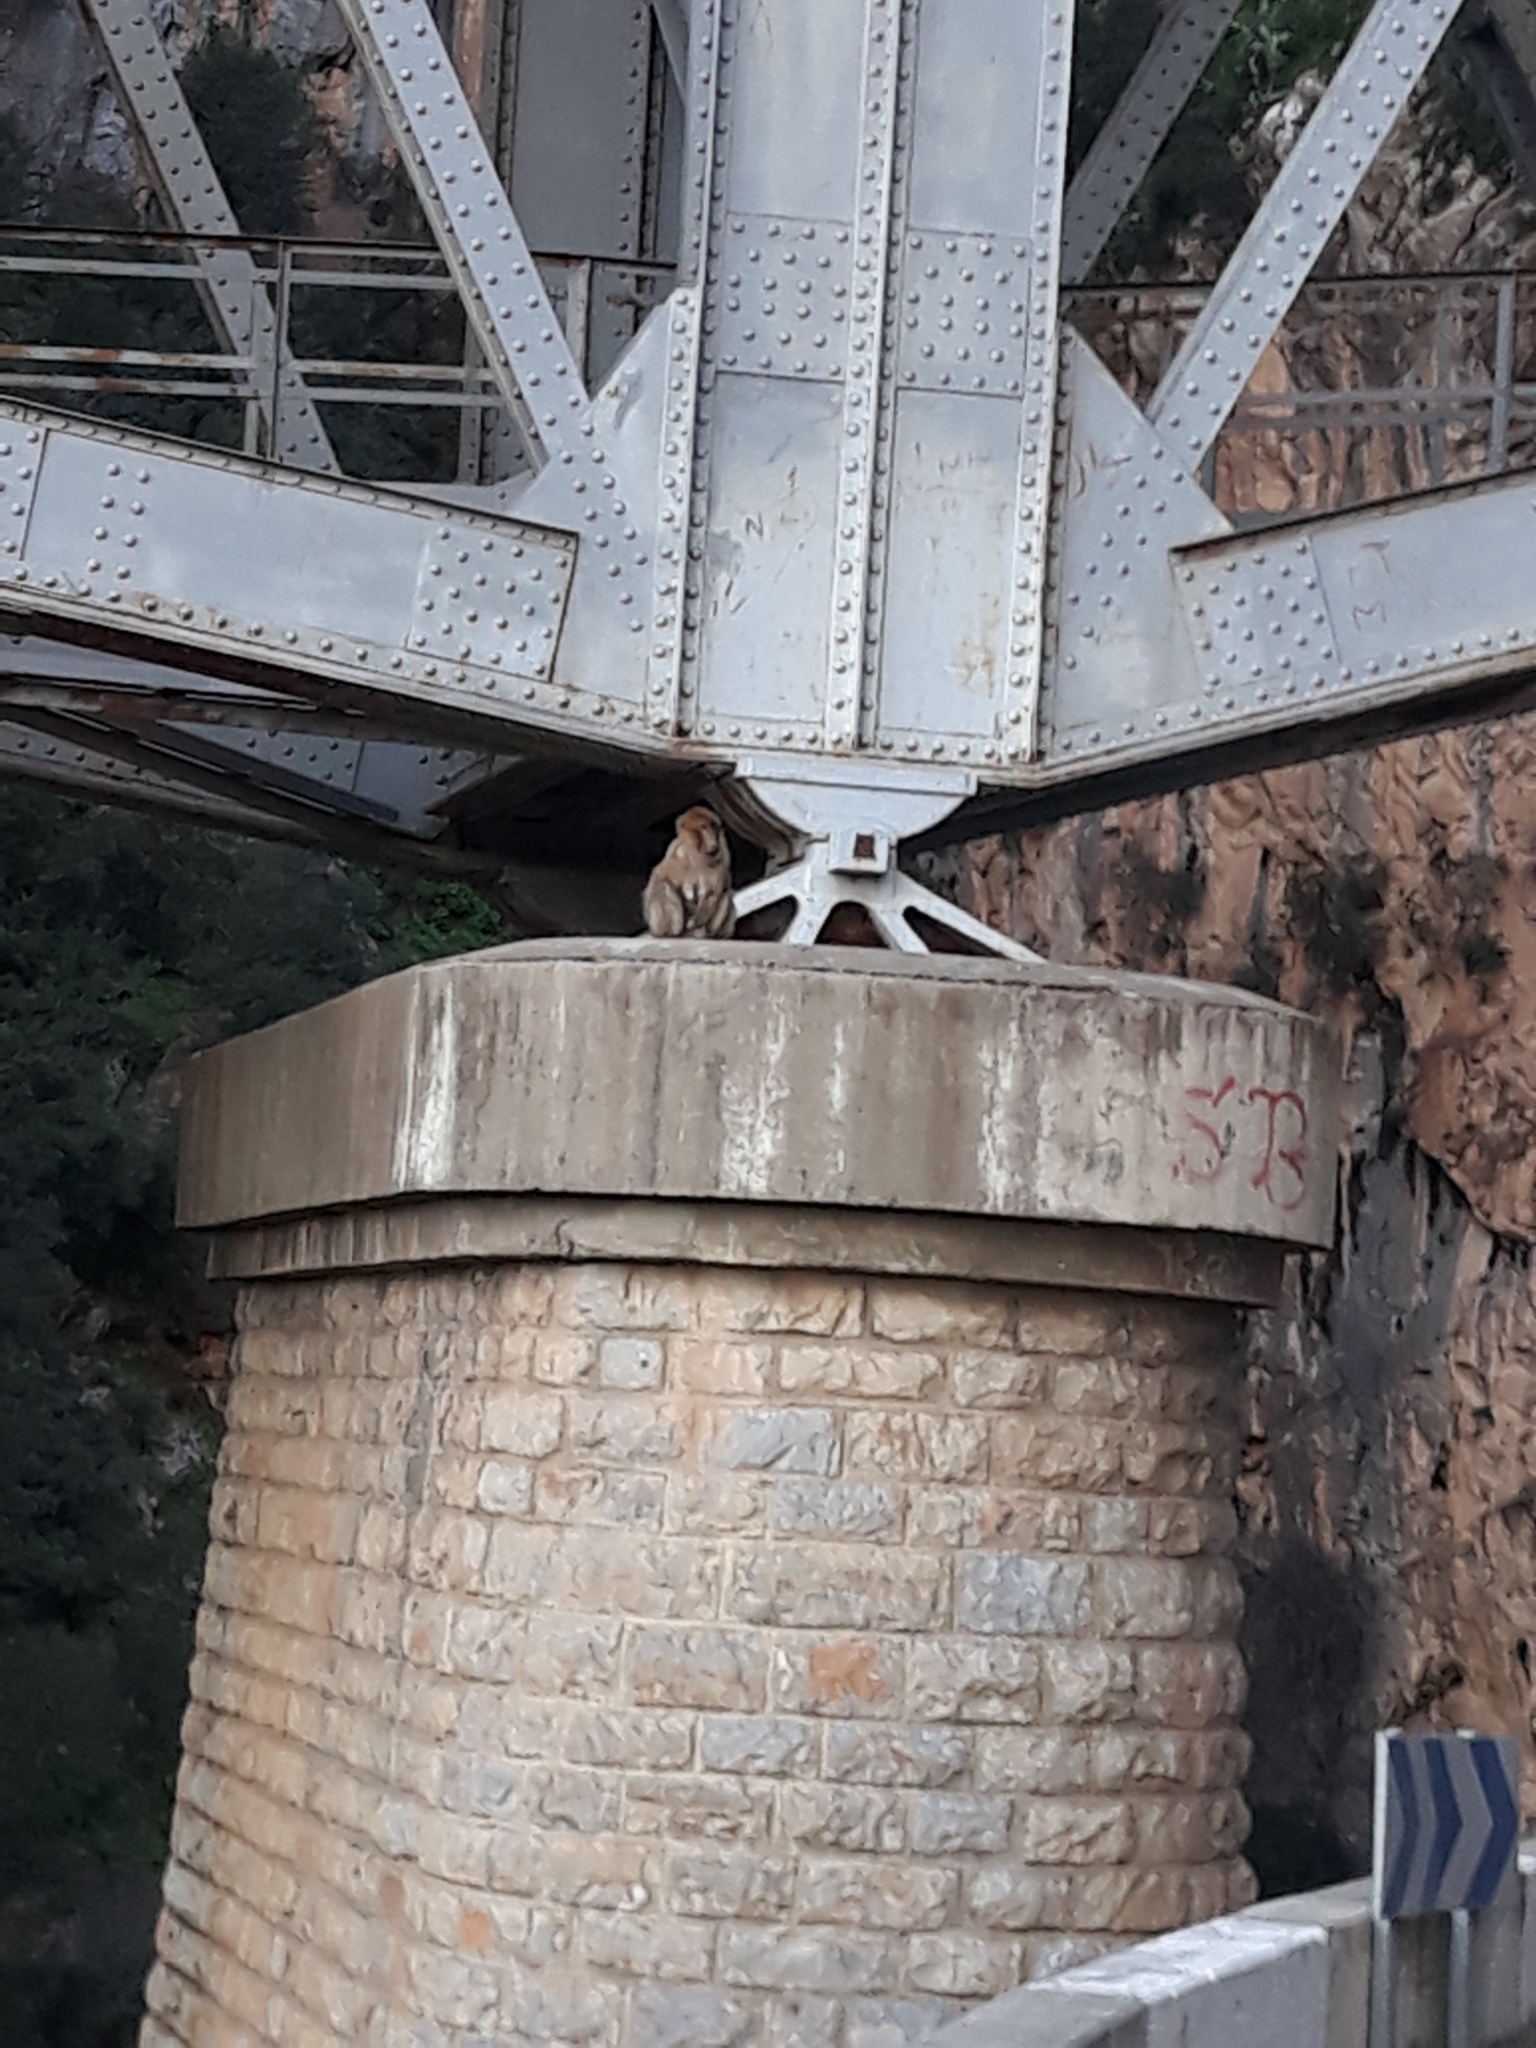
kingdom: Animalia
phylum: Chordata
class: Mammalia
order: Primates
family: Cercopithecidae
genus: Macaca
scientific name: Macaca sylvanus
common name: Barbary macaque
